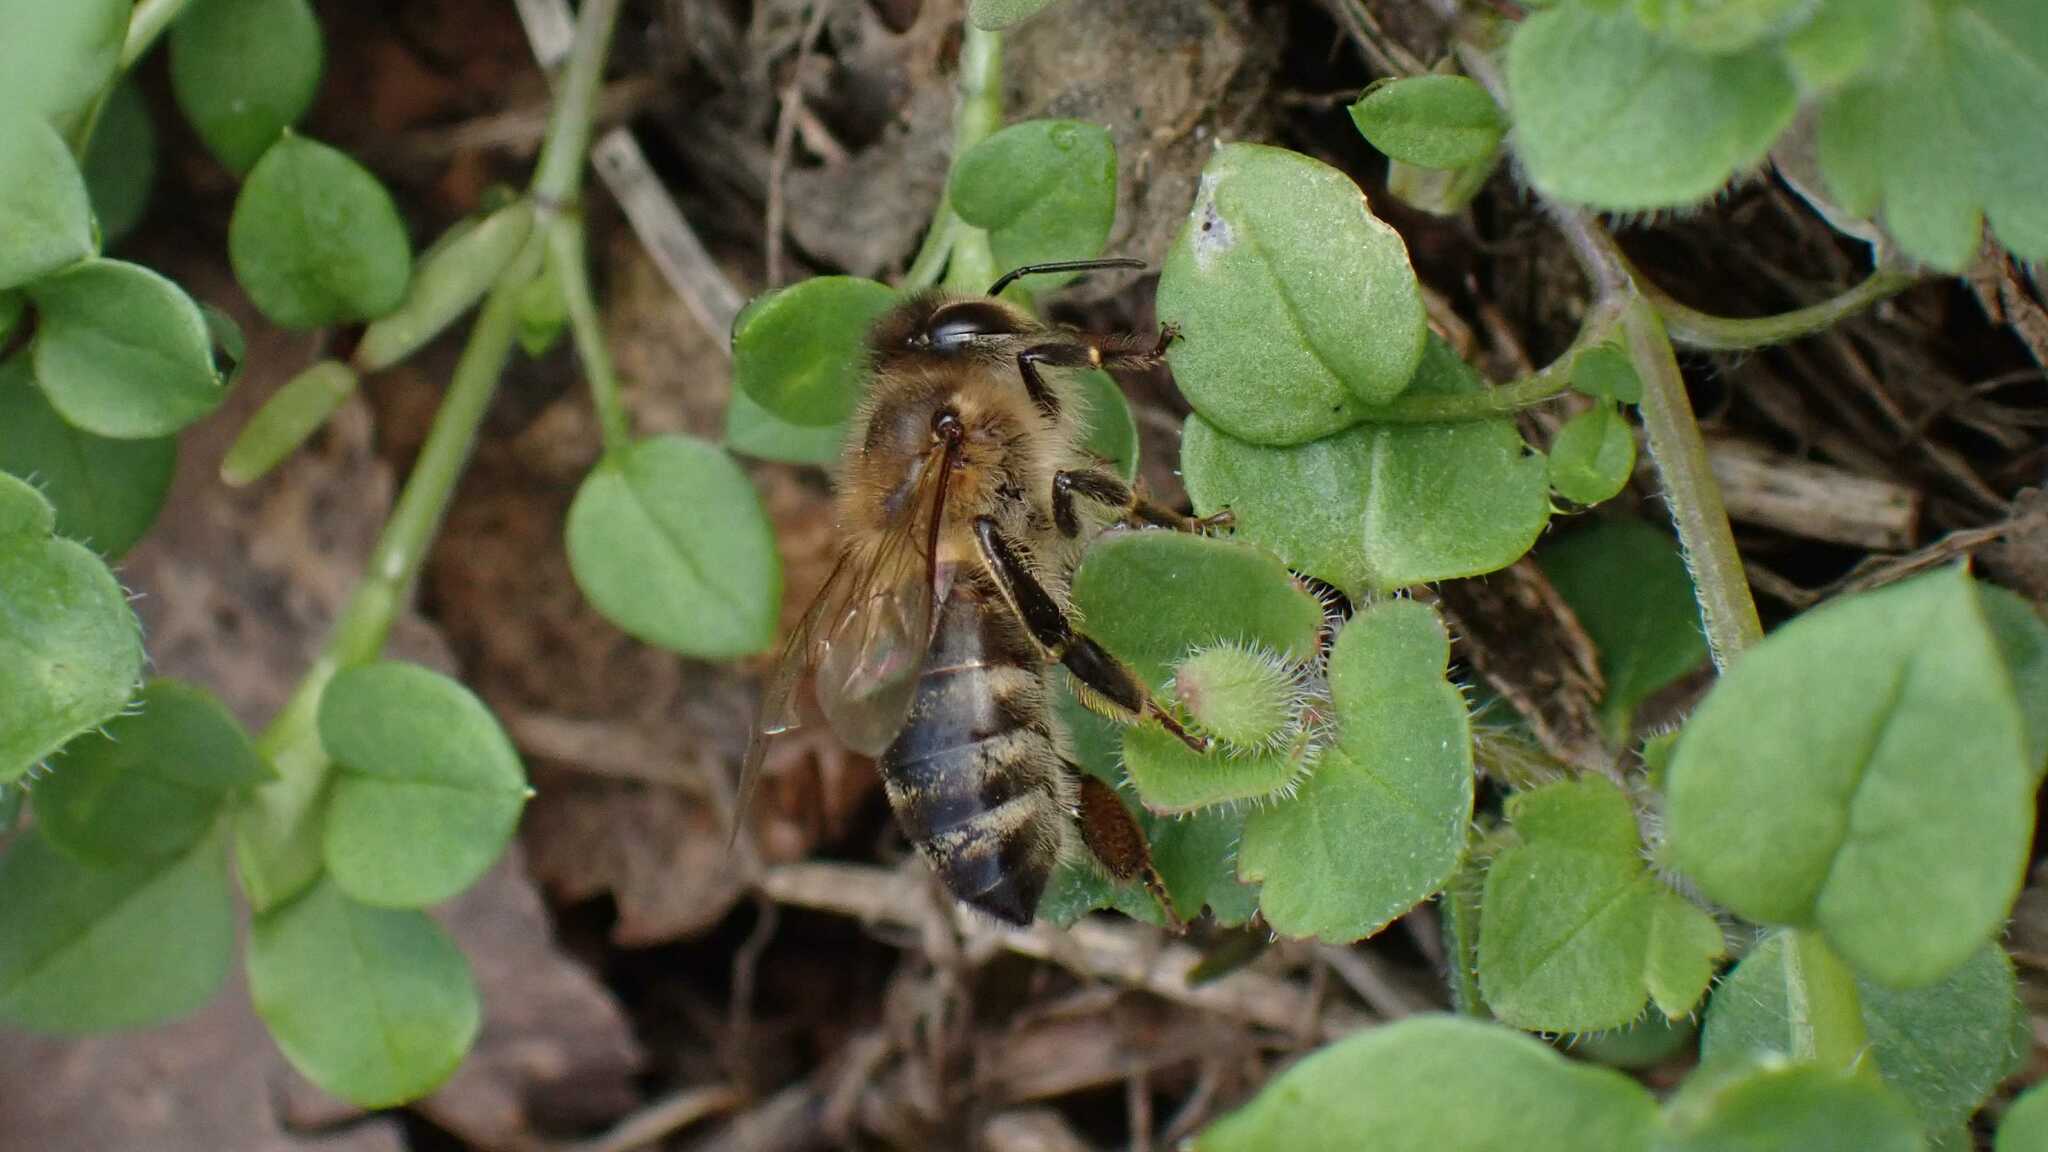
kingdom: Animalia
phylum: Arthropoda
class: Insecta
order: Hymenoptera
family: Apidae
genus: Apis
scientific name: Apis mellifera
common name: Honey bee
